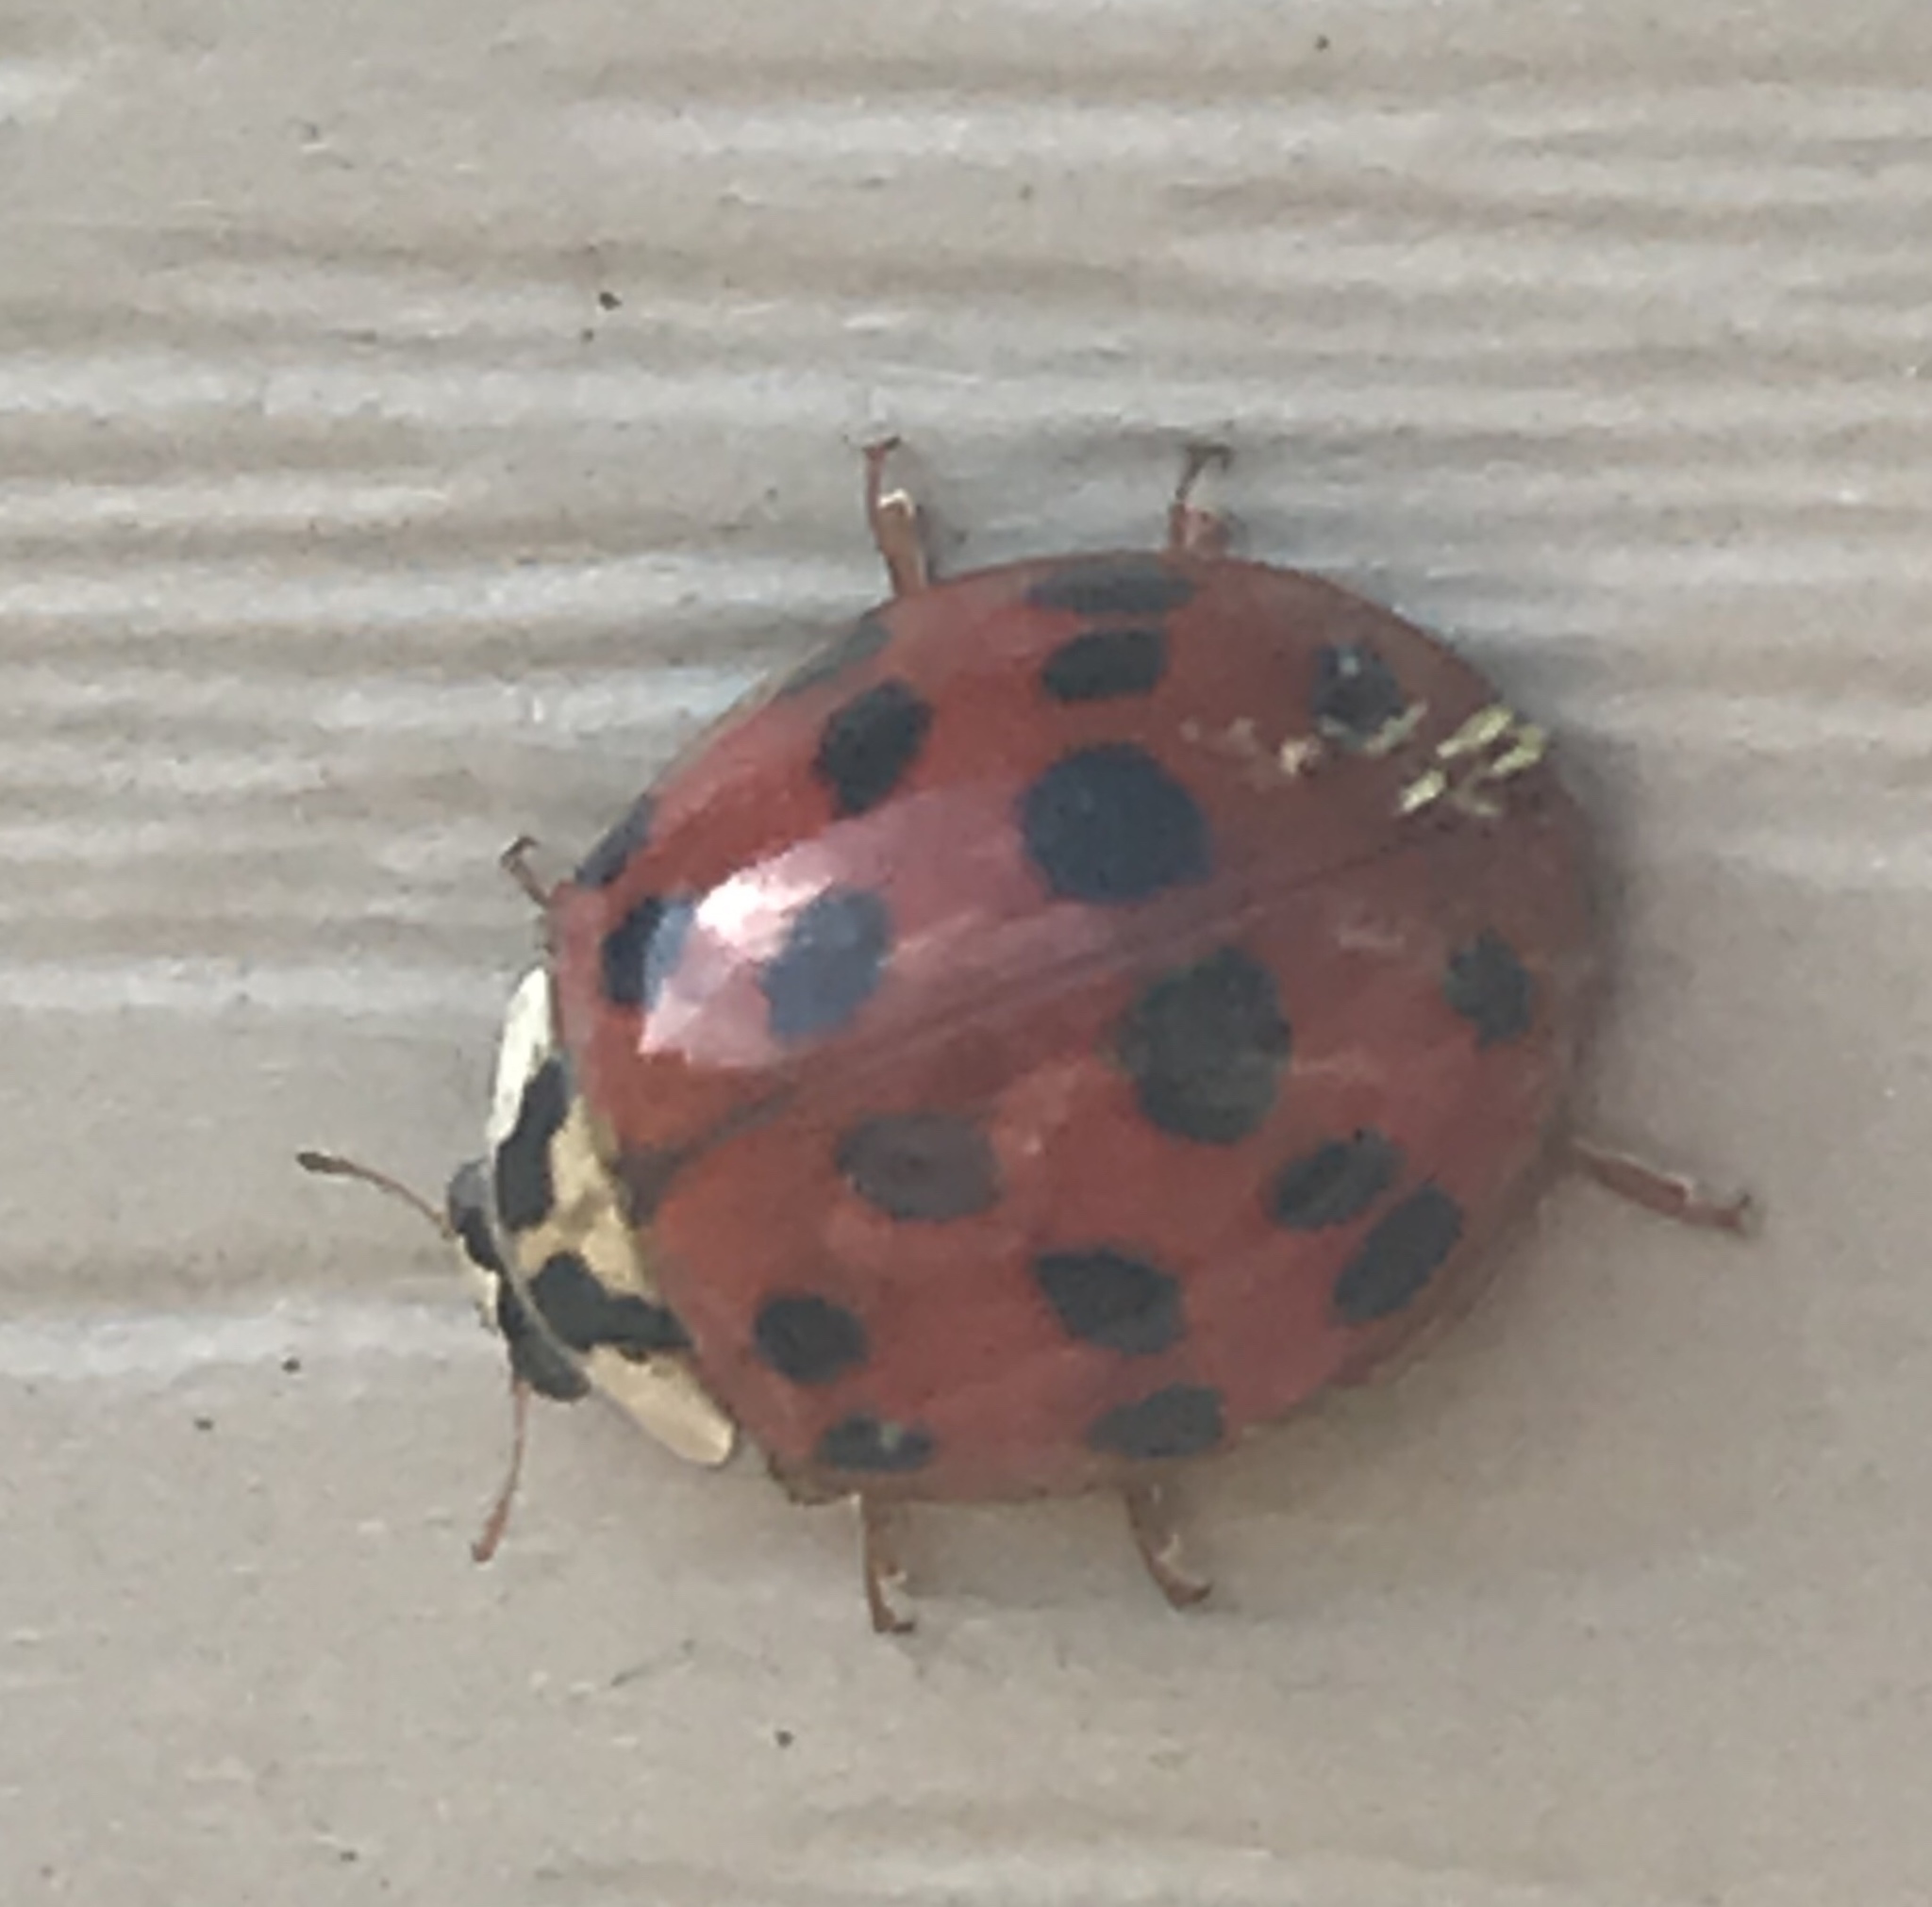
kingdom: Animalia
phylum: Arthropoda
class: Insecta
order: Coleoptera
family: Coccinellidae
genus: Harmonia
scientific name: Harmonia axyridis
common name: Harlequin ladybird
